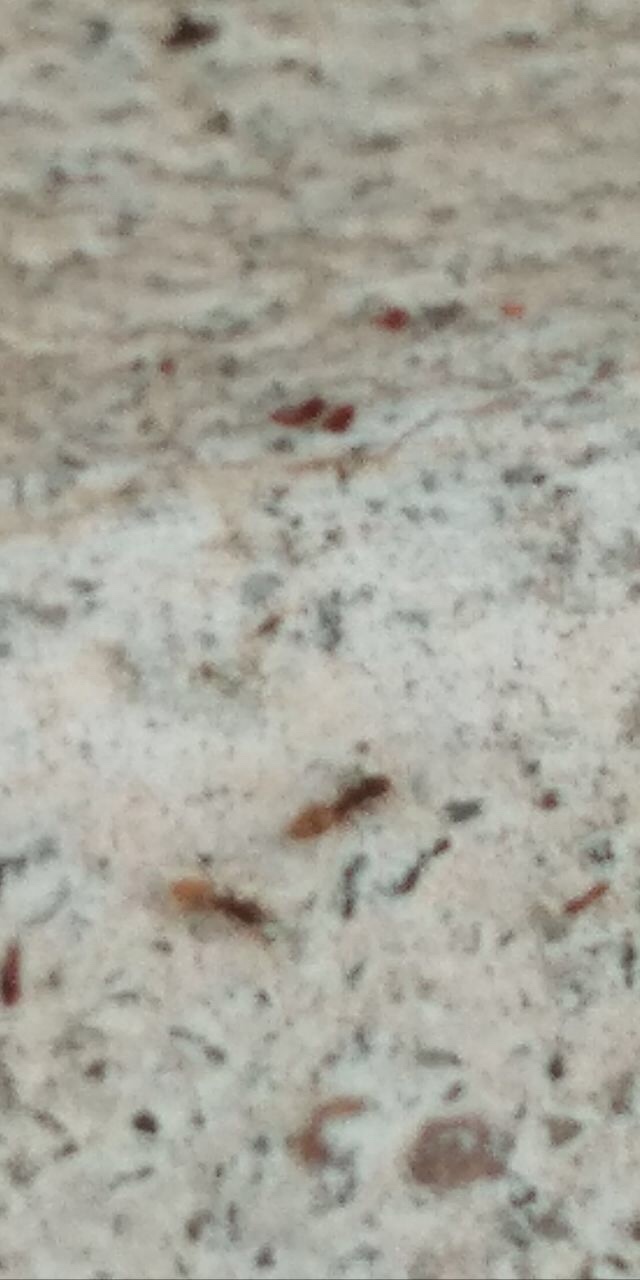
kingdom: Animalia
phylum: Arthropoda
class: Insecta
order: Hymenoptera
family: Formicidae
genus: Tapinoma
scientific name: Tapinoma melanocephalum
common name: Ghost ant
